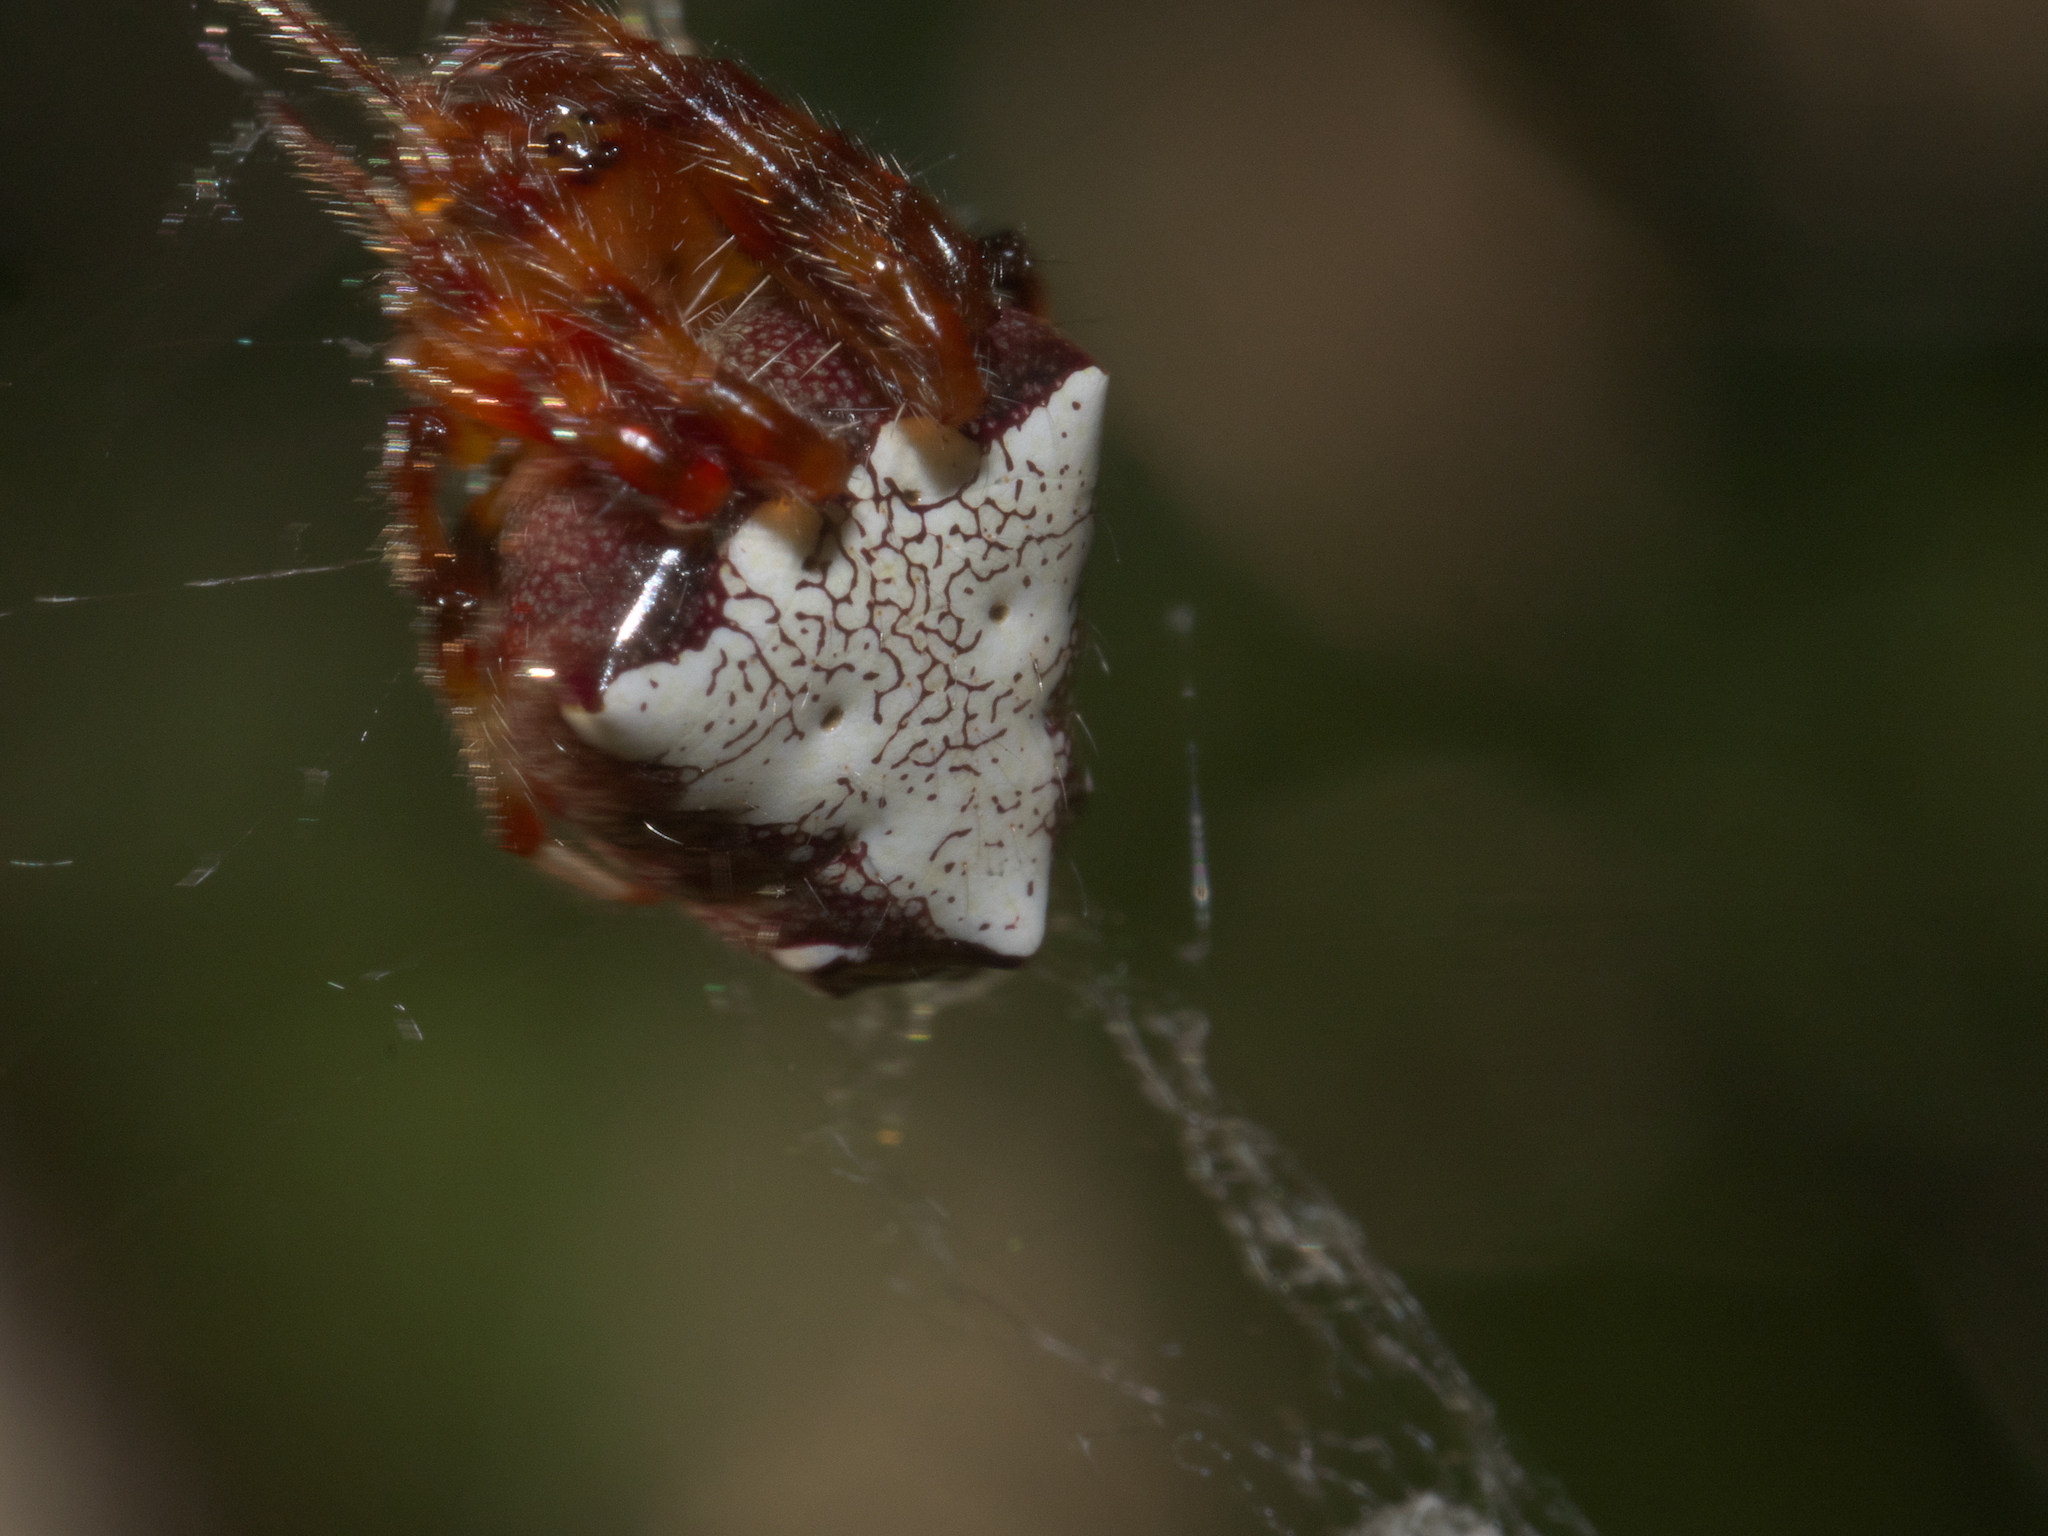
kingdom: Animalia
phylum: Arthropoda
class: Arachnida
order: Araneae
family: Araneidae
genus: Verrucosa
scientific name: Verrucosa arenata
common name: Orb weavers
